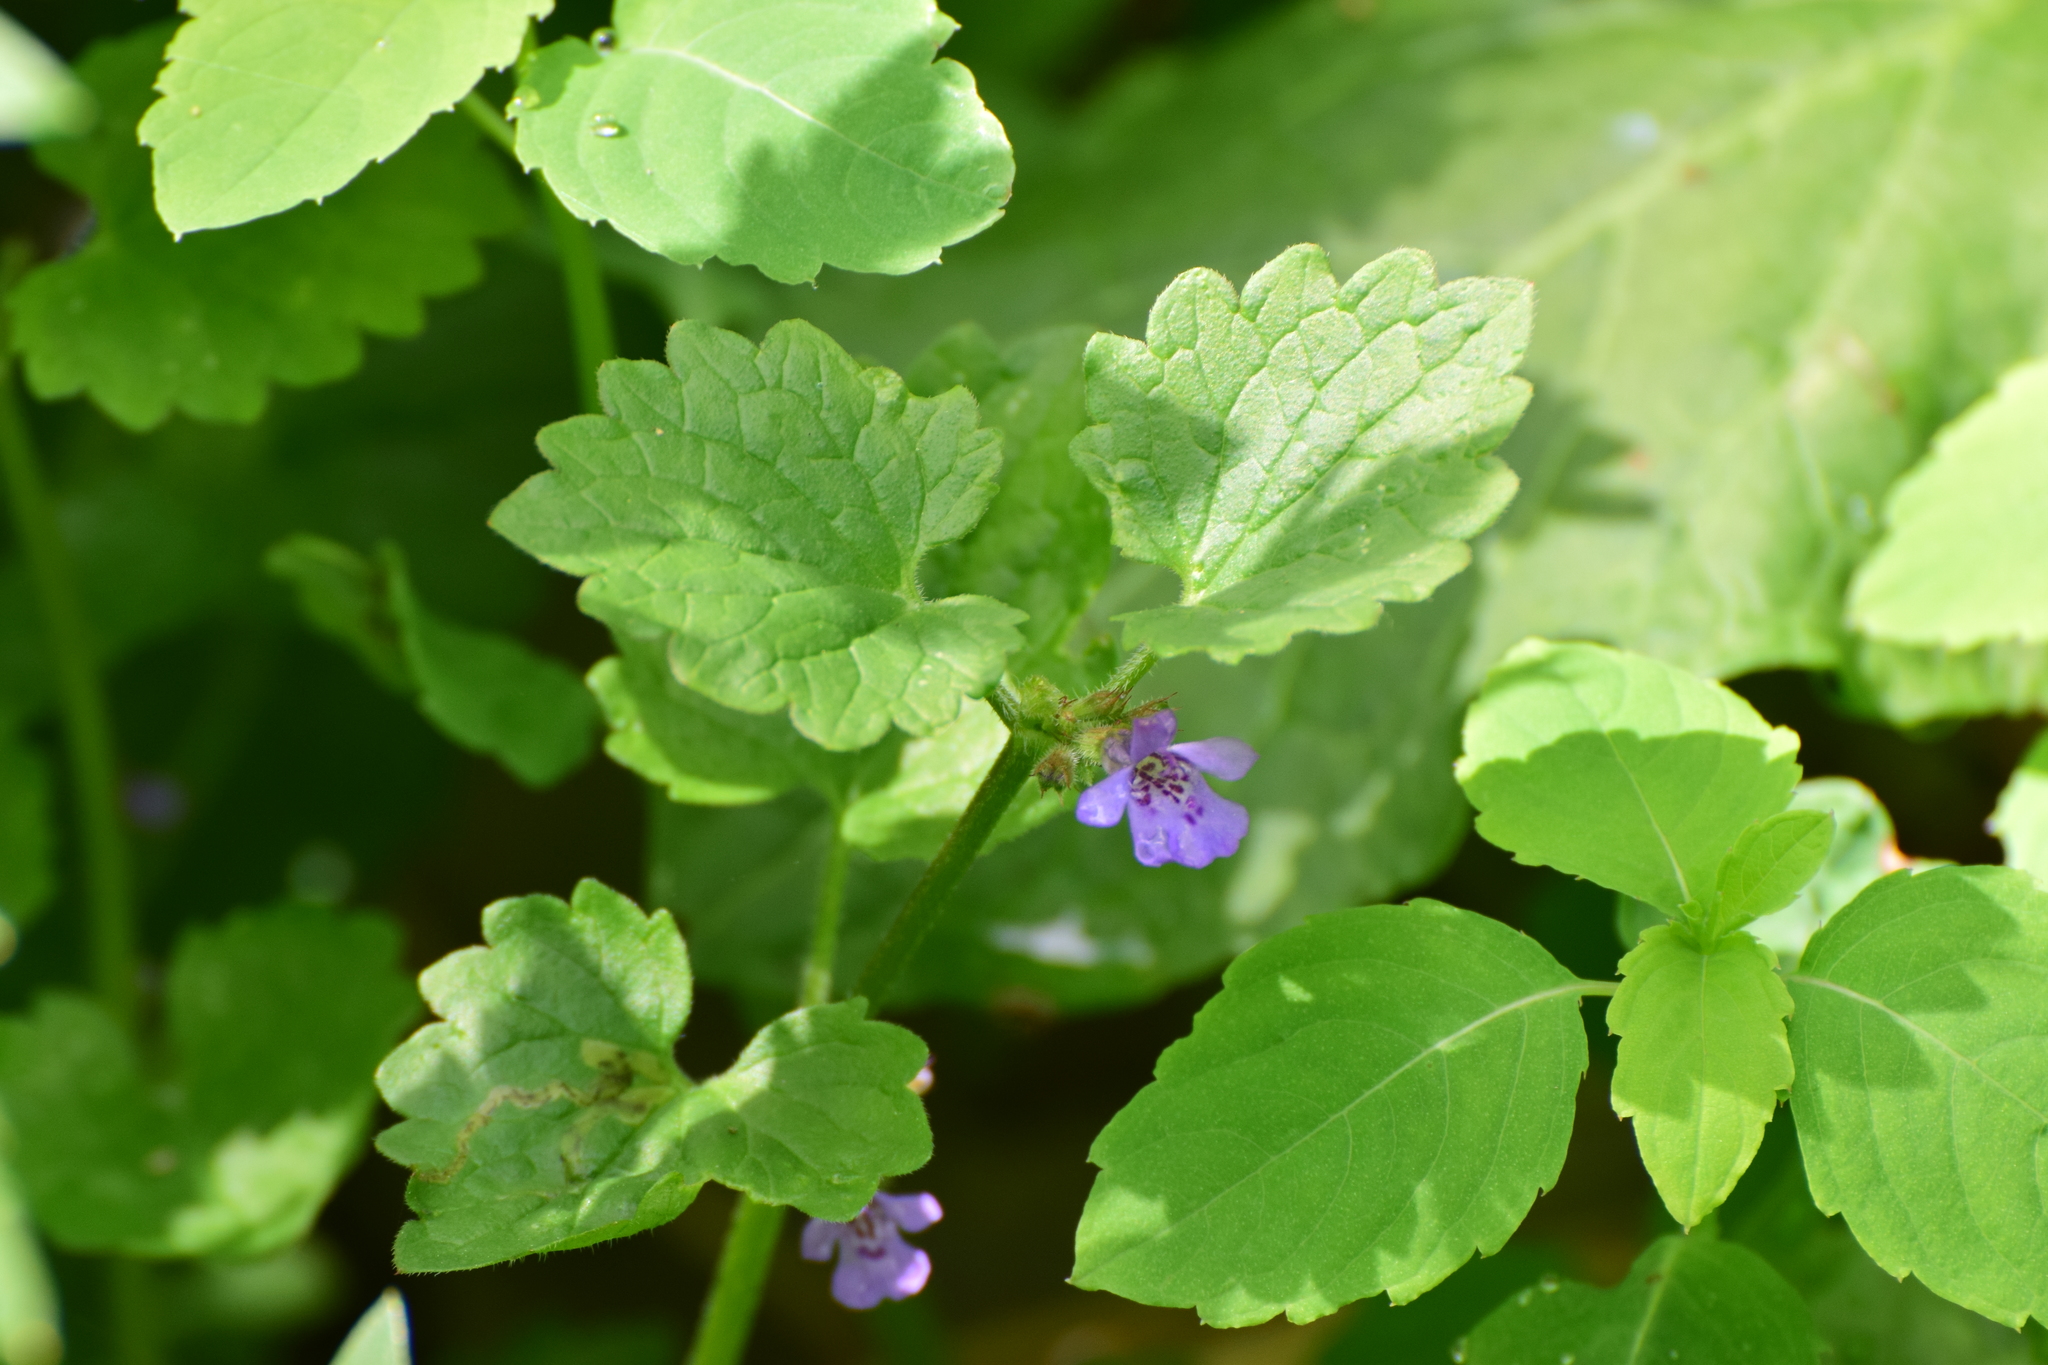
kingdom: Plantae
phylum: Tracheophyta
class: Magnoliopsida
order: Lamiales
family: Lamiaceae
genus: Glechoma
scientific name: Glechoma hederacea
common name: Ground ivy
